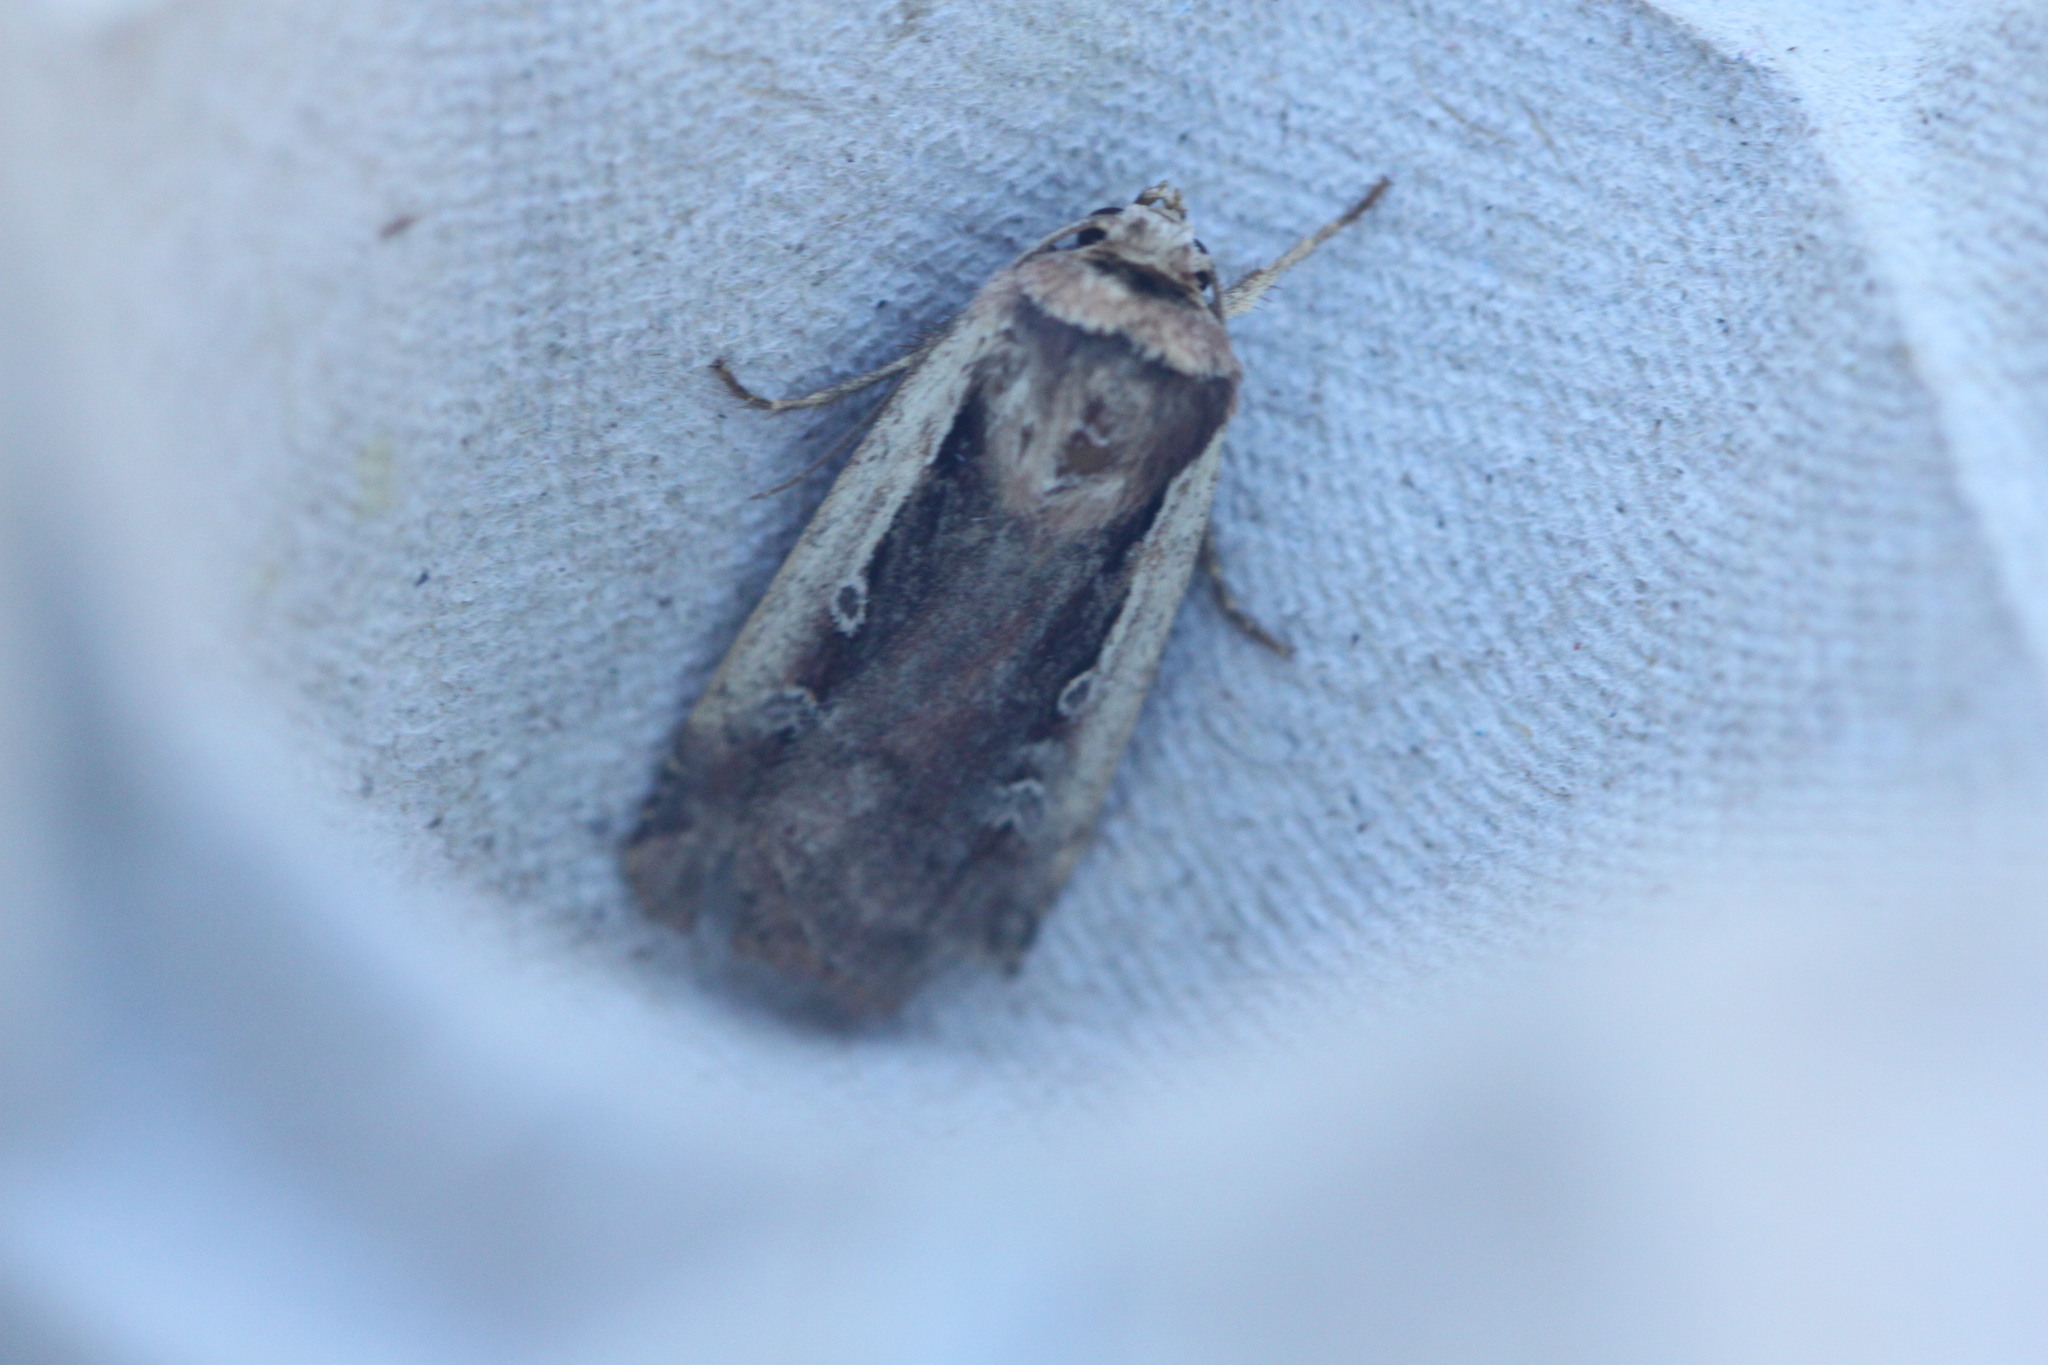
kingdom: Animalia
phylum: Arthropoda
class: Insecta
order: Lepidoptera
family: Noctuidae
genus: Ochropleura
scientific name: Ochropleura plecta
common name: Flame shoulder
